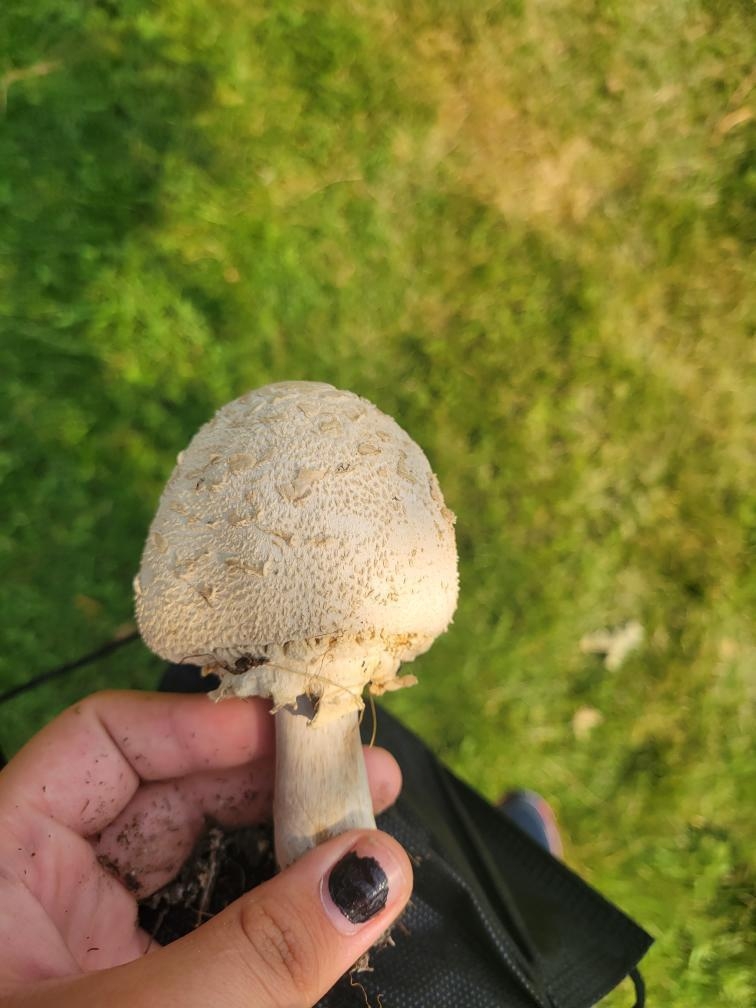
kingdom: Fungi
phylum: Basidiomycota
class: Agaricomycetes
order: Agaricales
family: Agaricaceae
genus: Chlorophyllum
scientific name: Chlorophyllum molybdites
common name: False parasol
